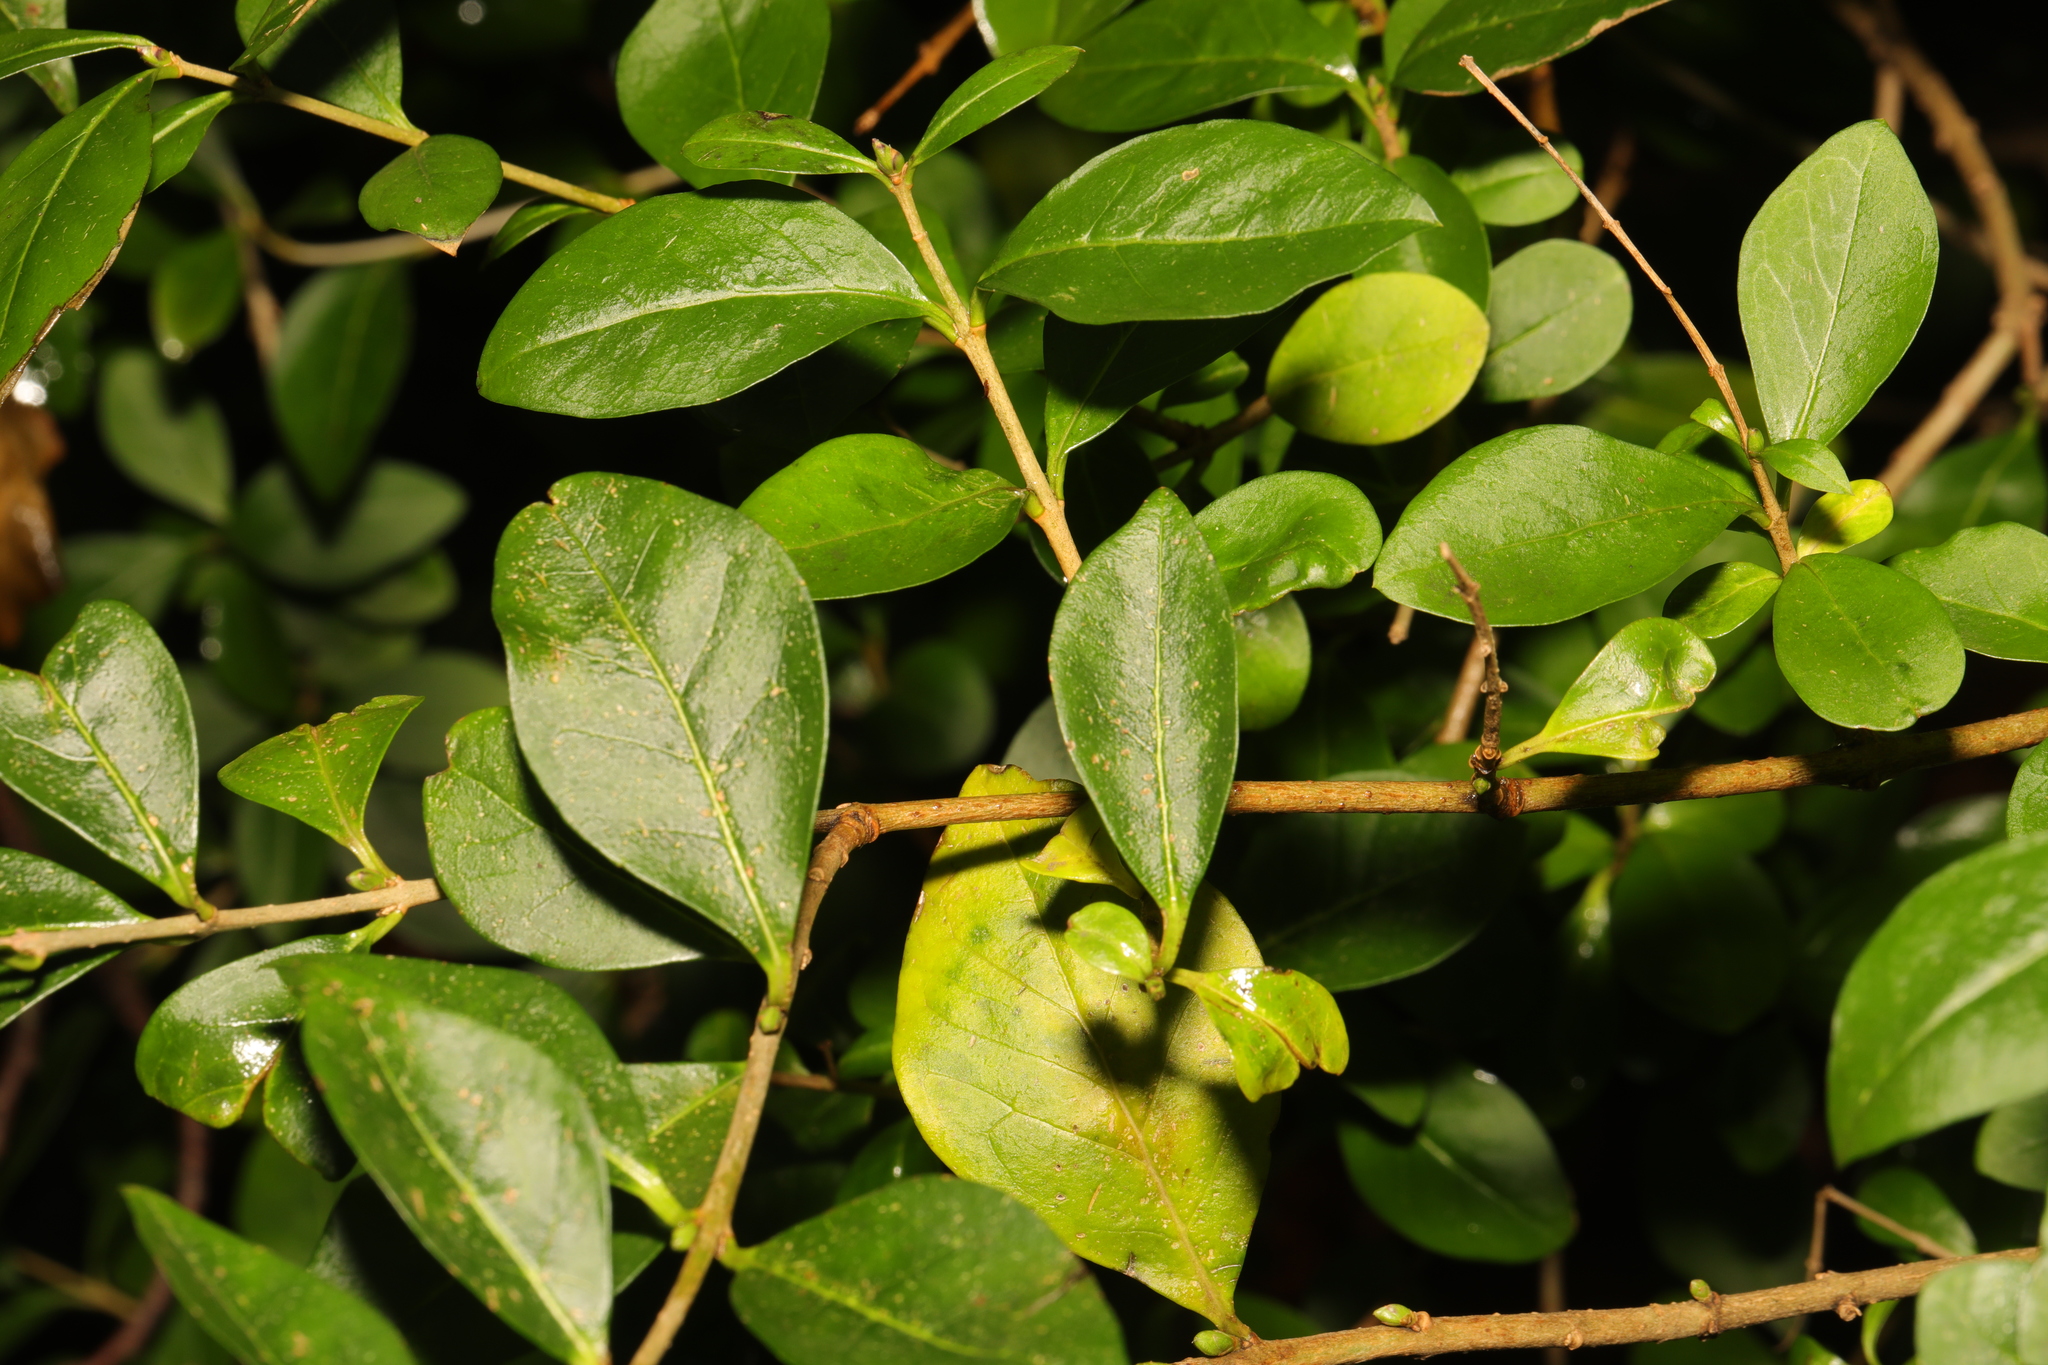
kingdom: Plantae
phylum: Tracheophyta
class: Magnoliopsida
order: Lamiales
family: Oleaceae
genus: Ligustrum
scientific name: Ligustrum ovalifolium
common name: California privet
